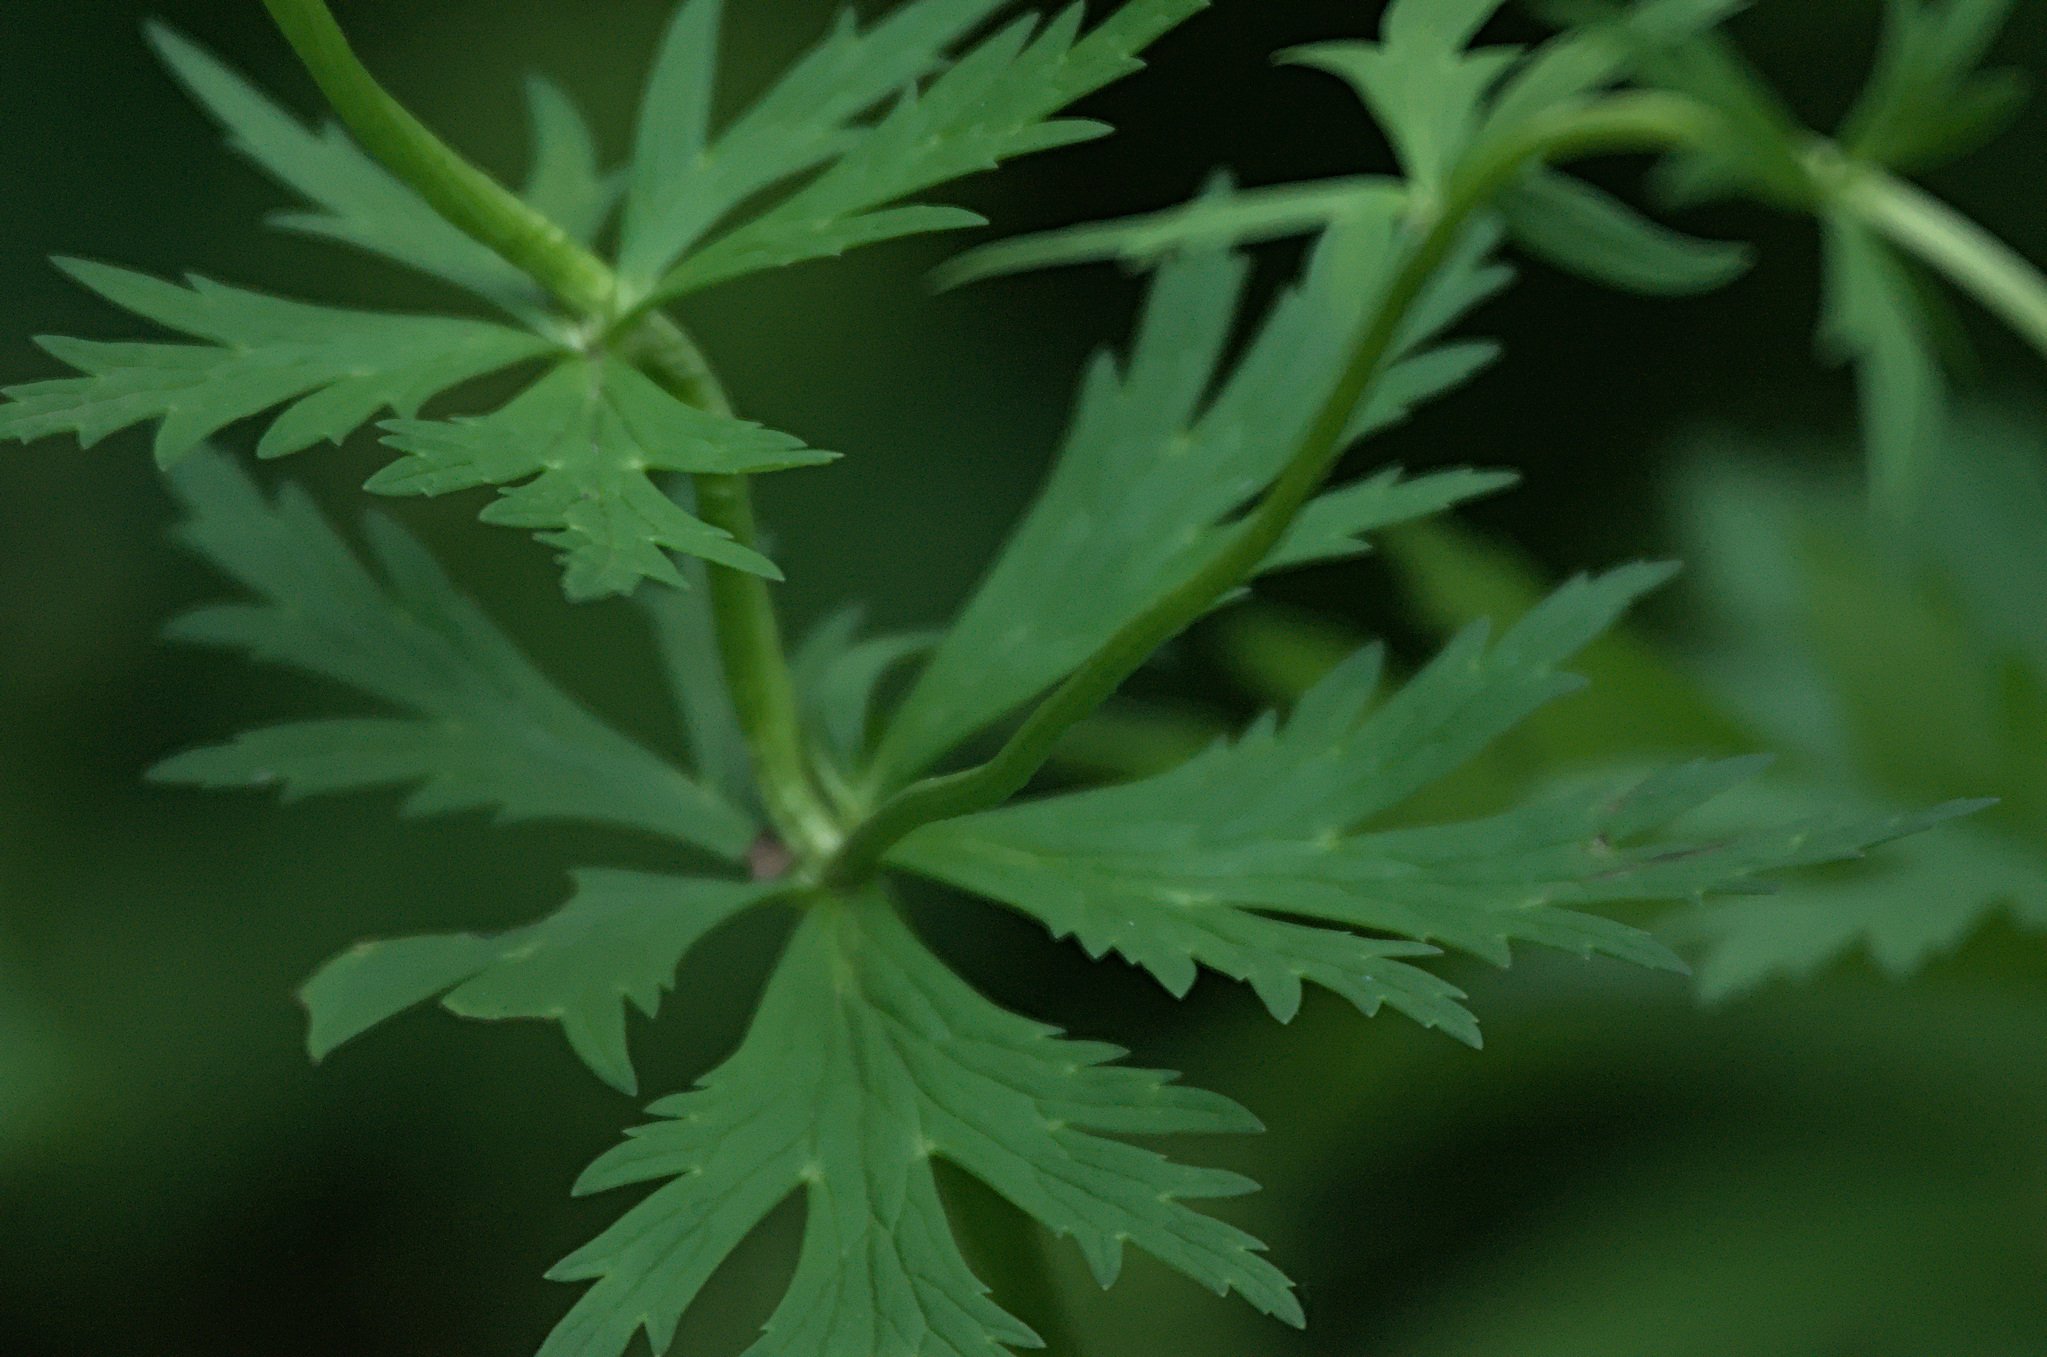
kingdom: Plantae
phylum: Tracheophyta
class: Magnoliopsida
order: Ranunculales
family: Ranunculaceae
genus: Trollius
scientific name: Trollius asiaticus
